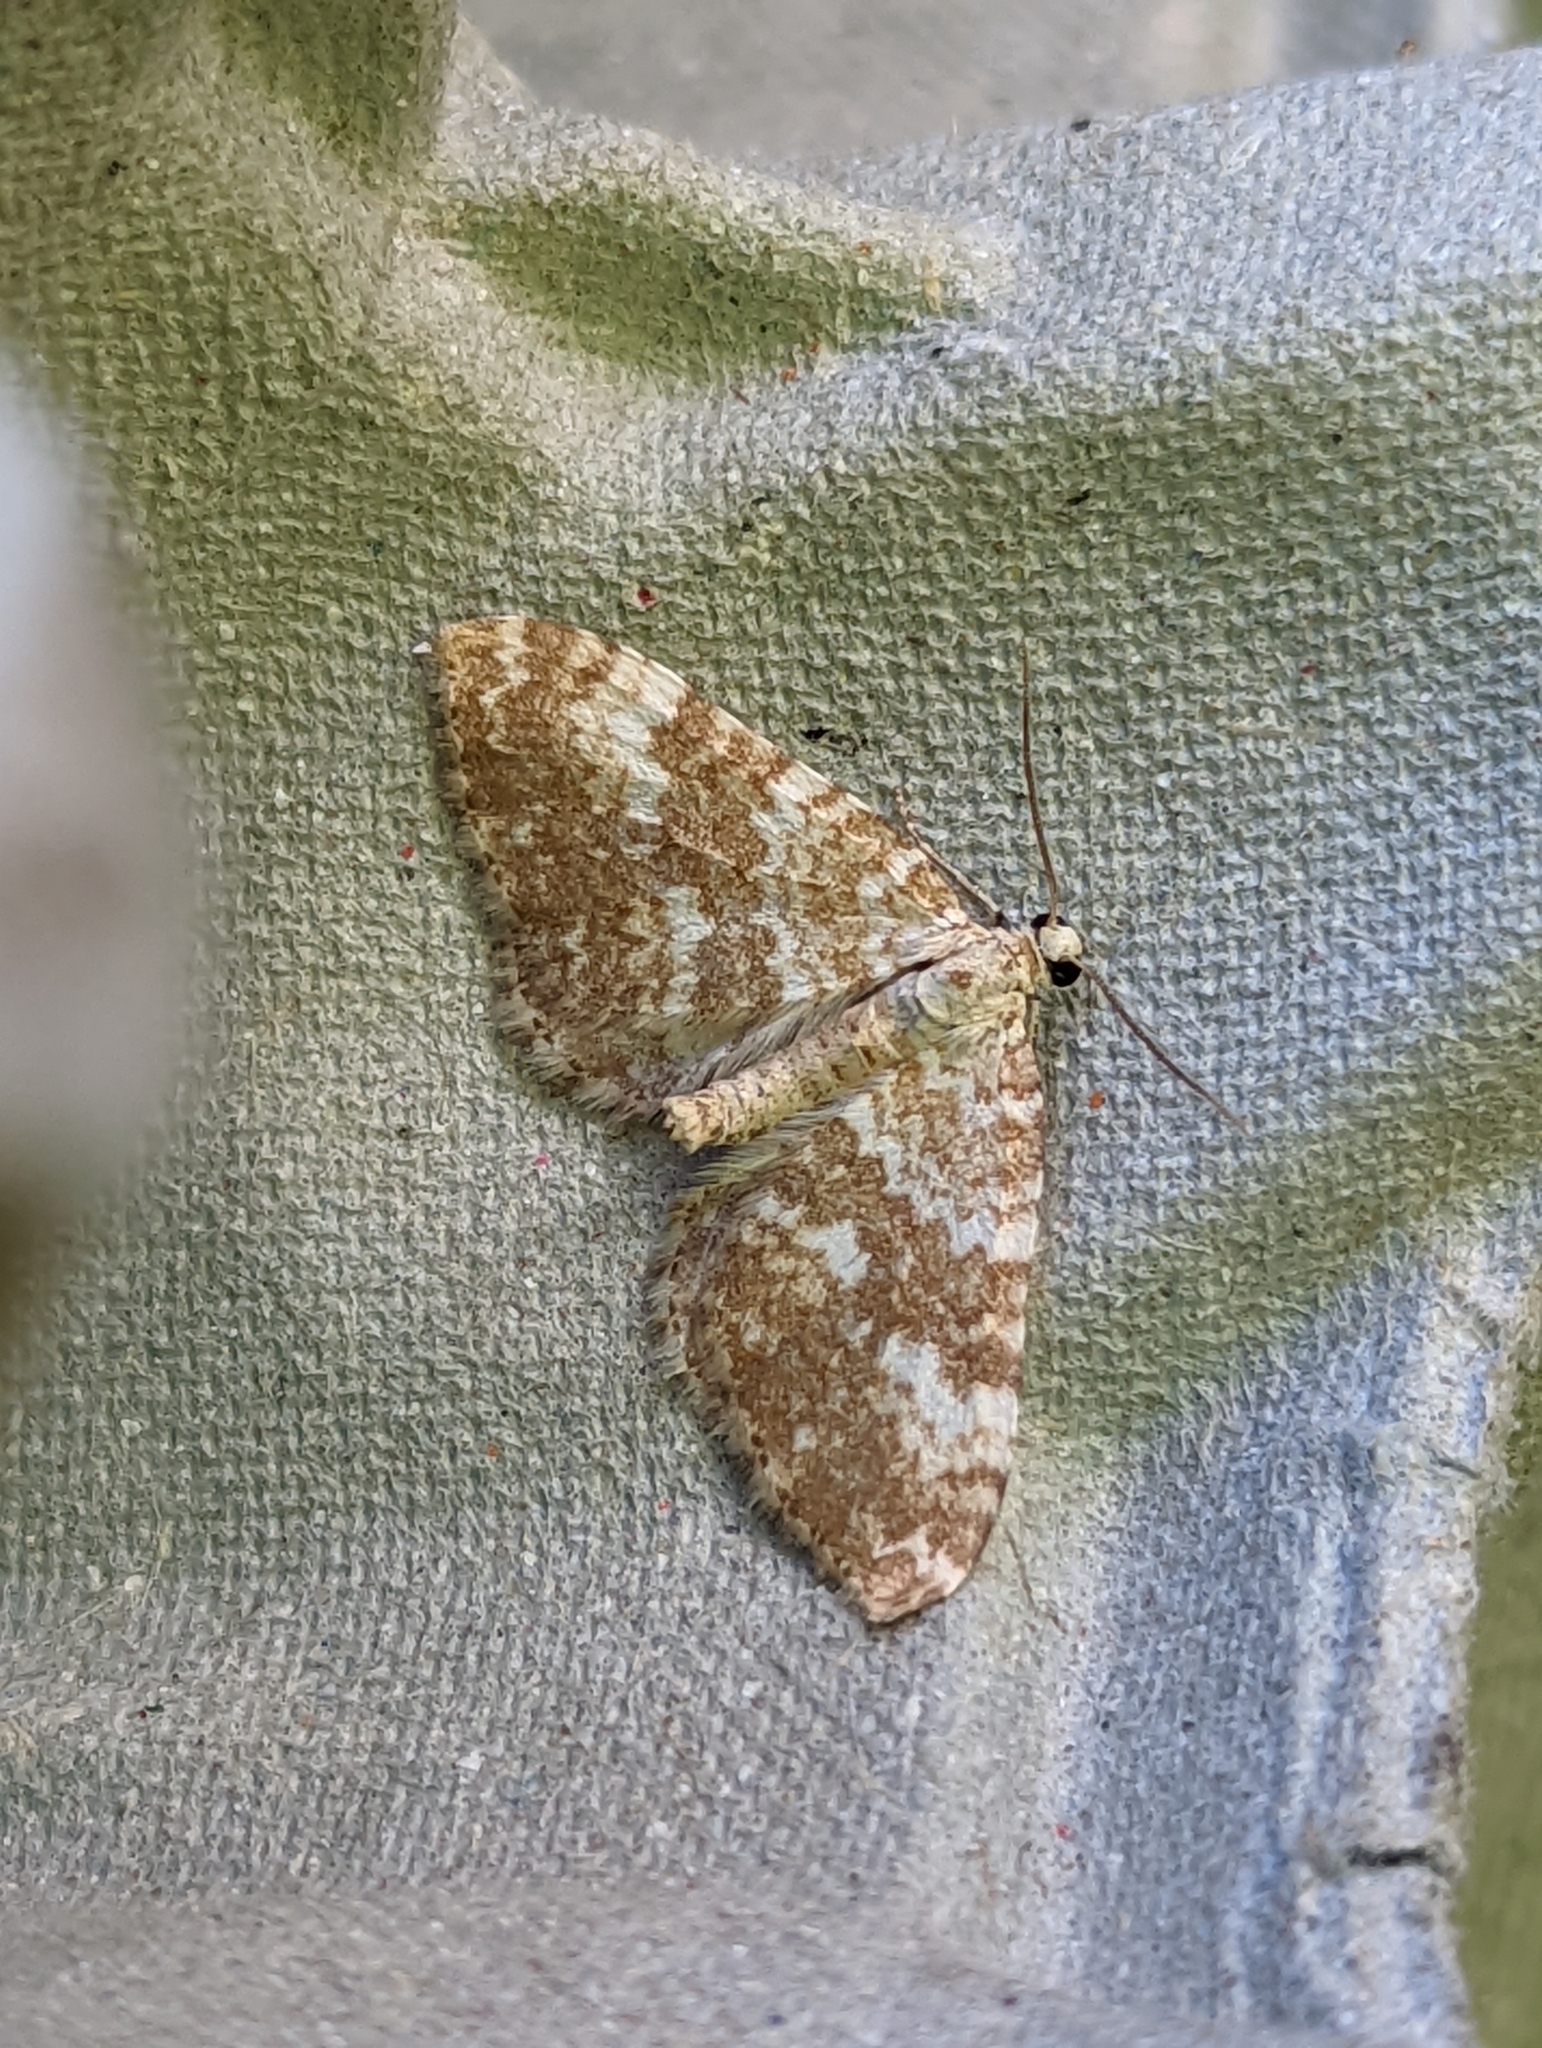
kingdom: Animalia
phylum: Arthropoda
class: Insecta
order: Lepidoptera
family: Geometridae
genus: Perizoma
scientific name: Perizoma flavofasciata
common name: Sandy carpet
